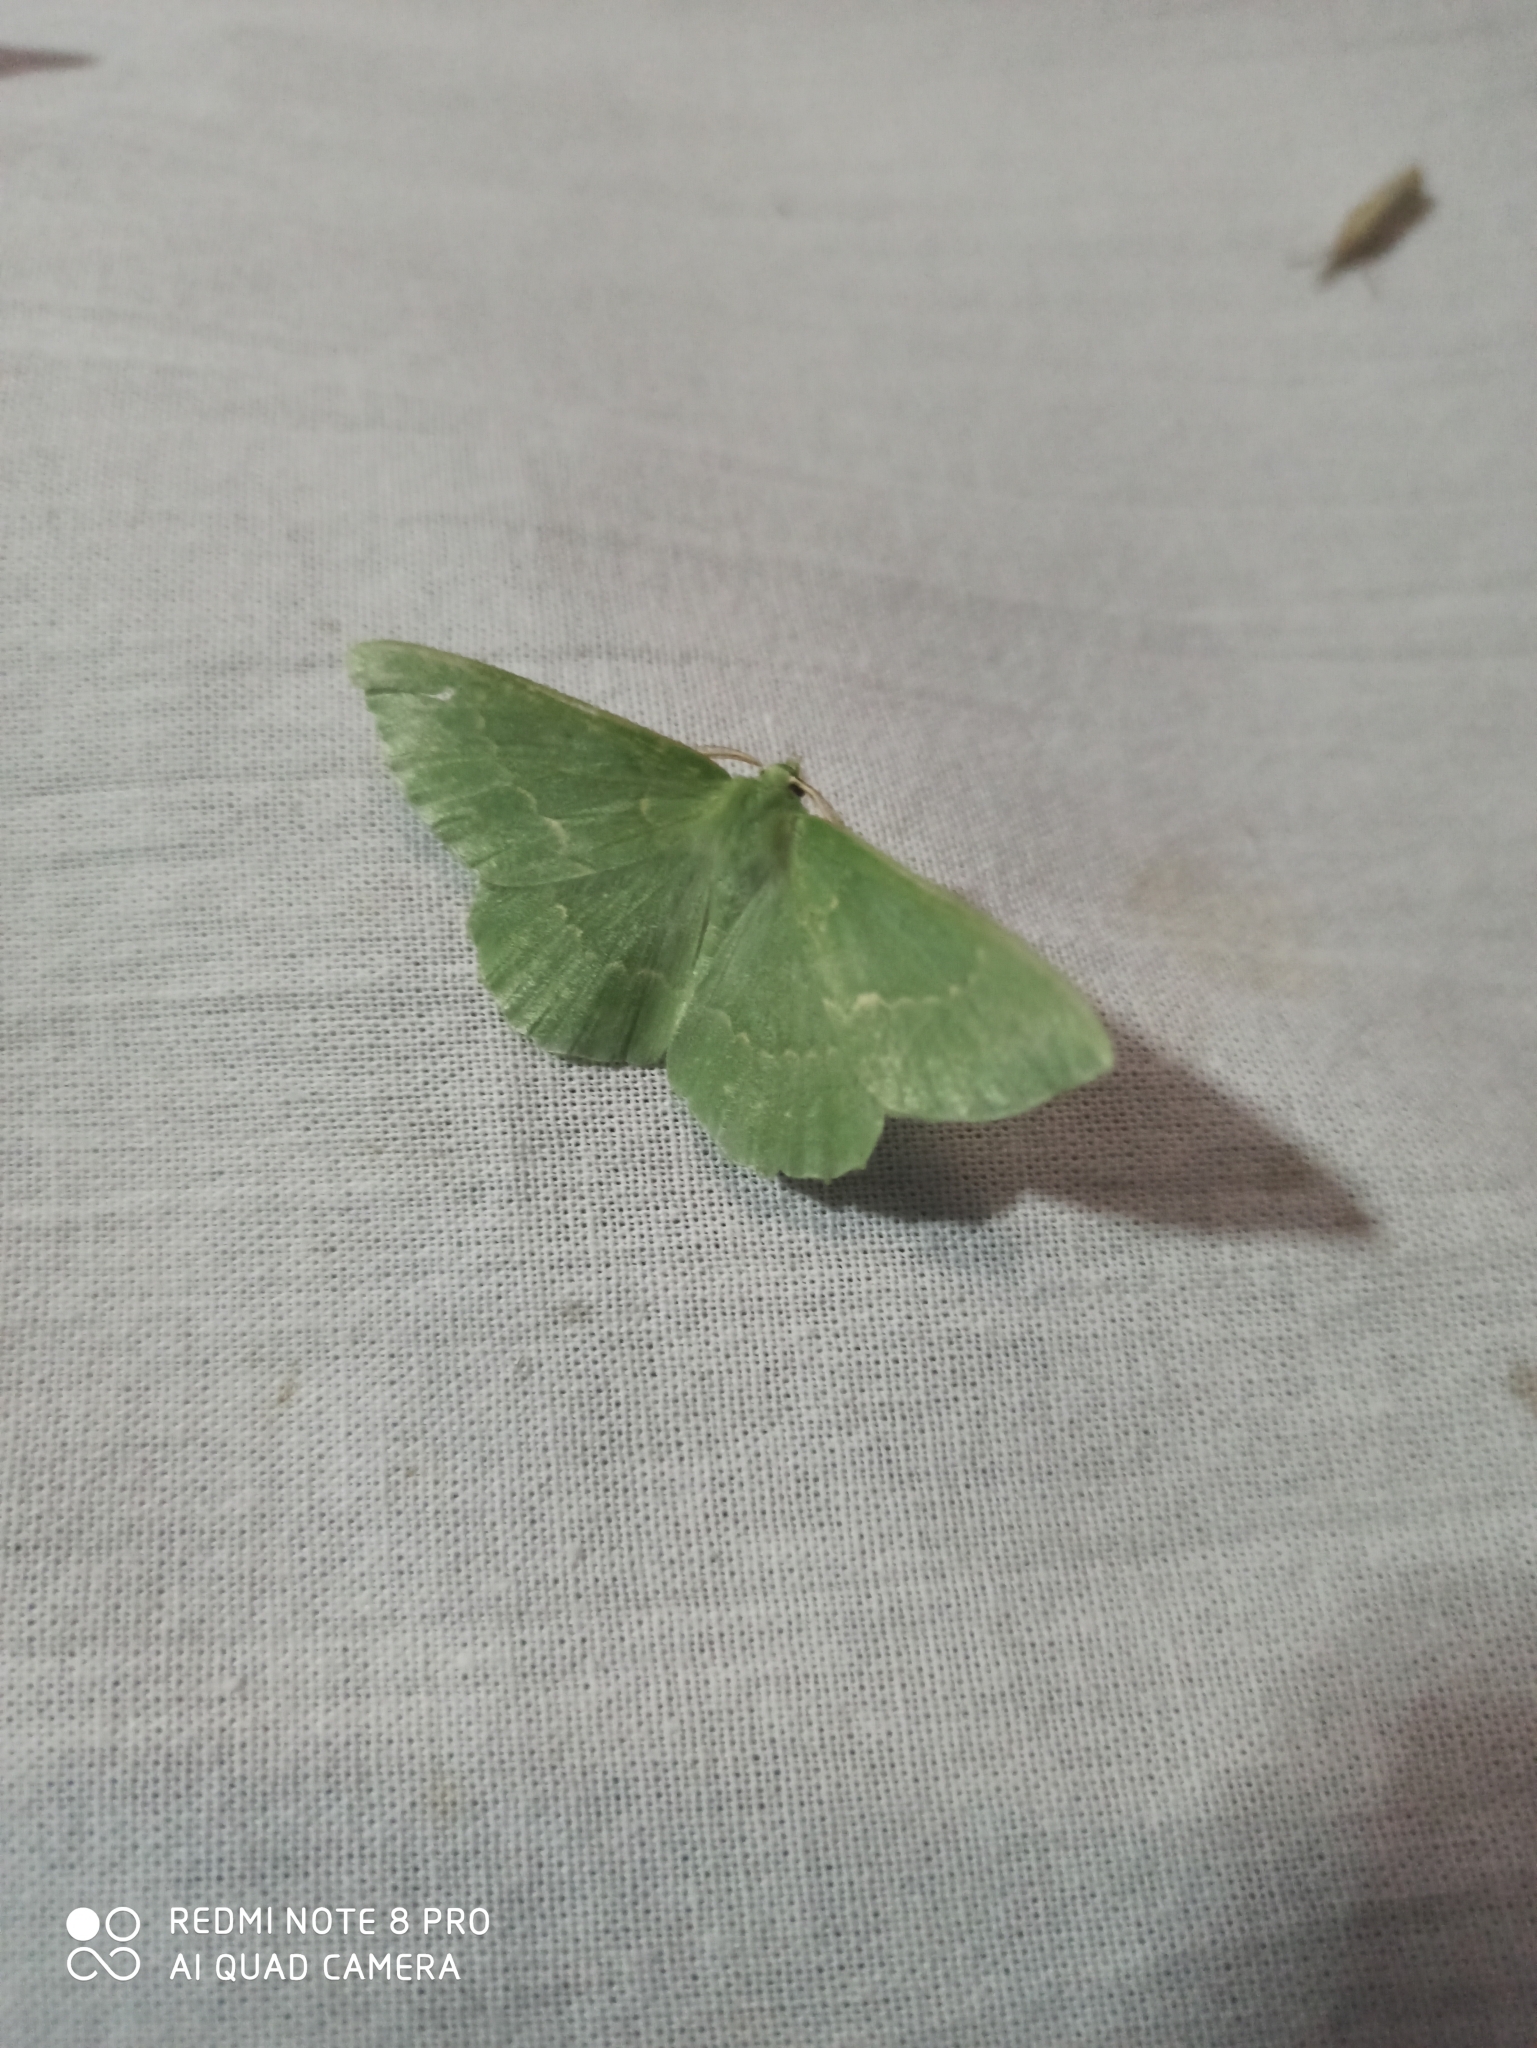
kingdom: Animalia
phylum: Arthropoda
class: Insecta
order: Lepidoptera
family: Geometridae
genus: Geometra
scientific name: Geometra papilionaria
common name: Large emerald
